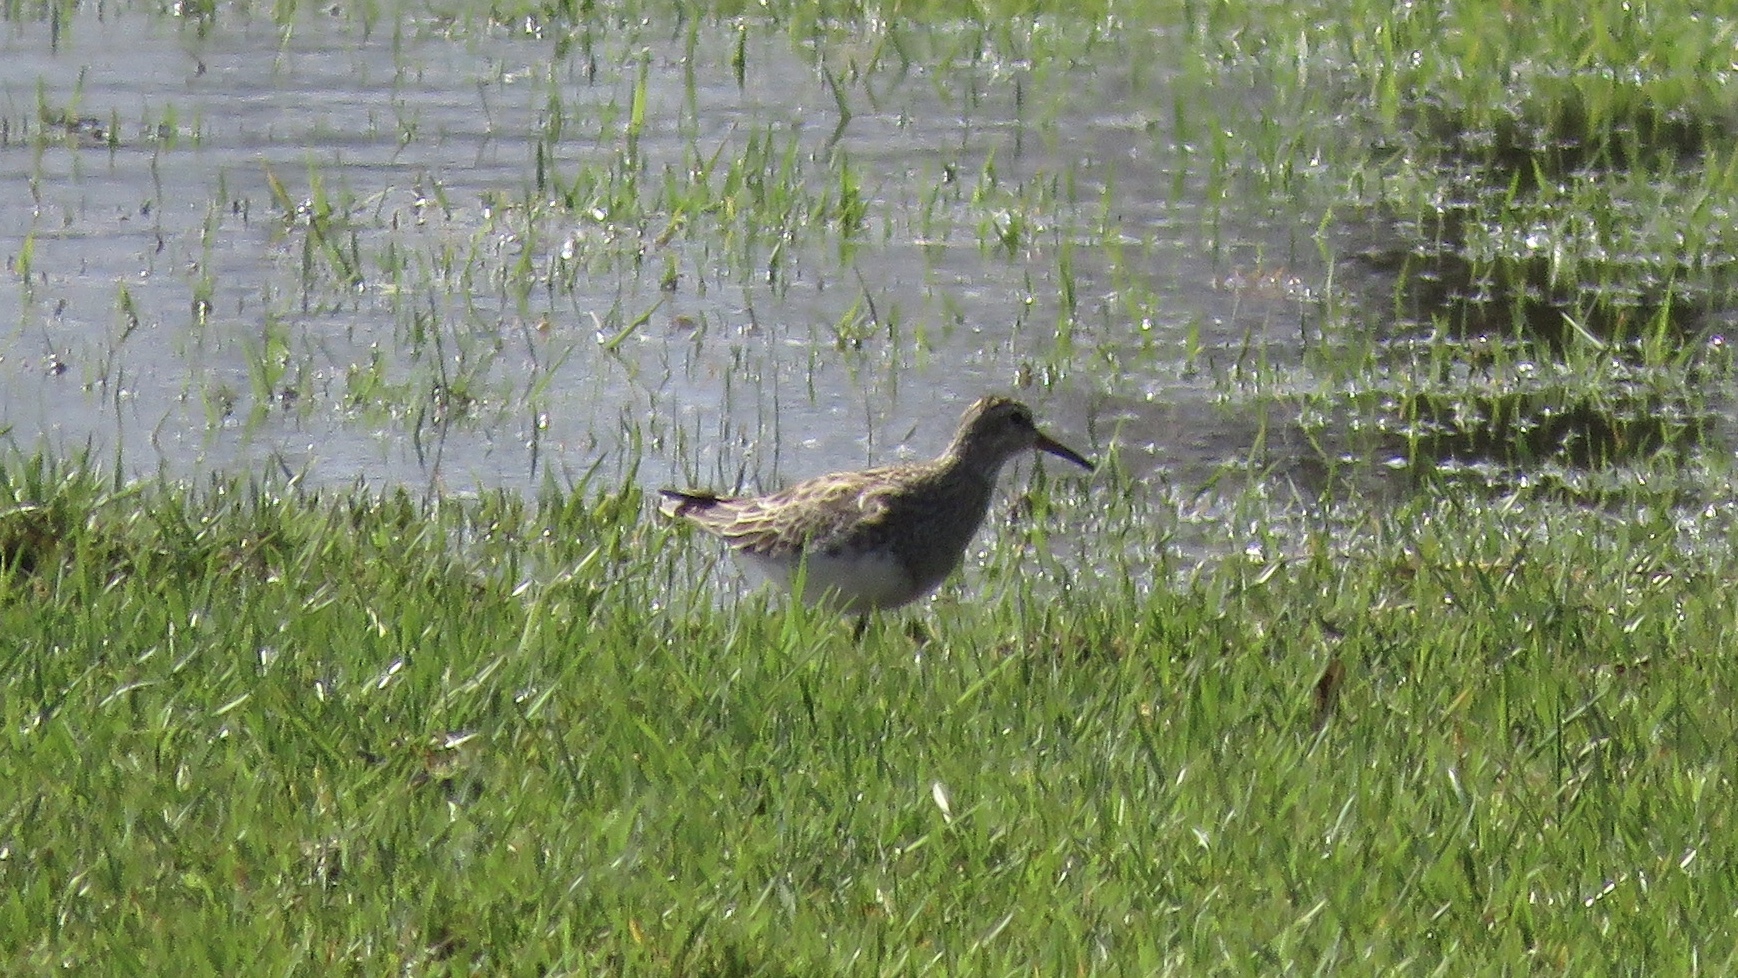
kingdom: Animalia
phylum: Chordata
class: Aves
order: Charadriiformes
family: Scolopacidae
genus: Calidris
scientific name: Calidris melanotos
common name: Pectoral sandpiper
